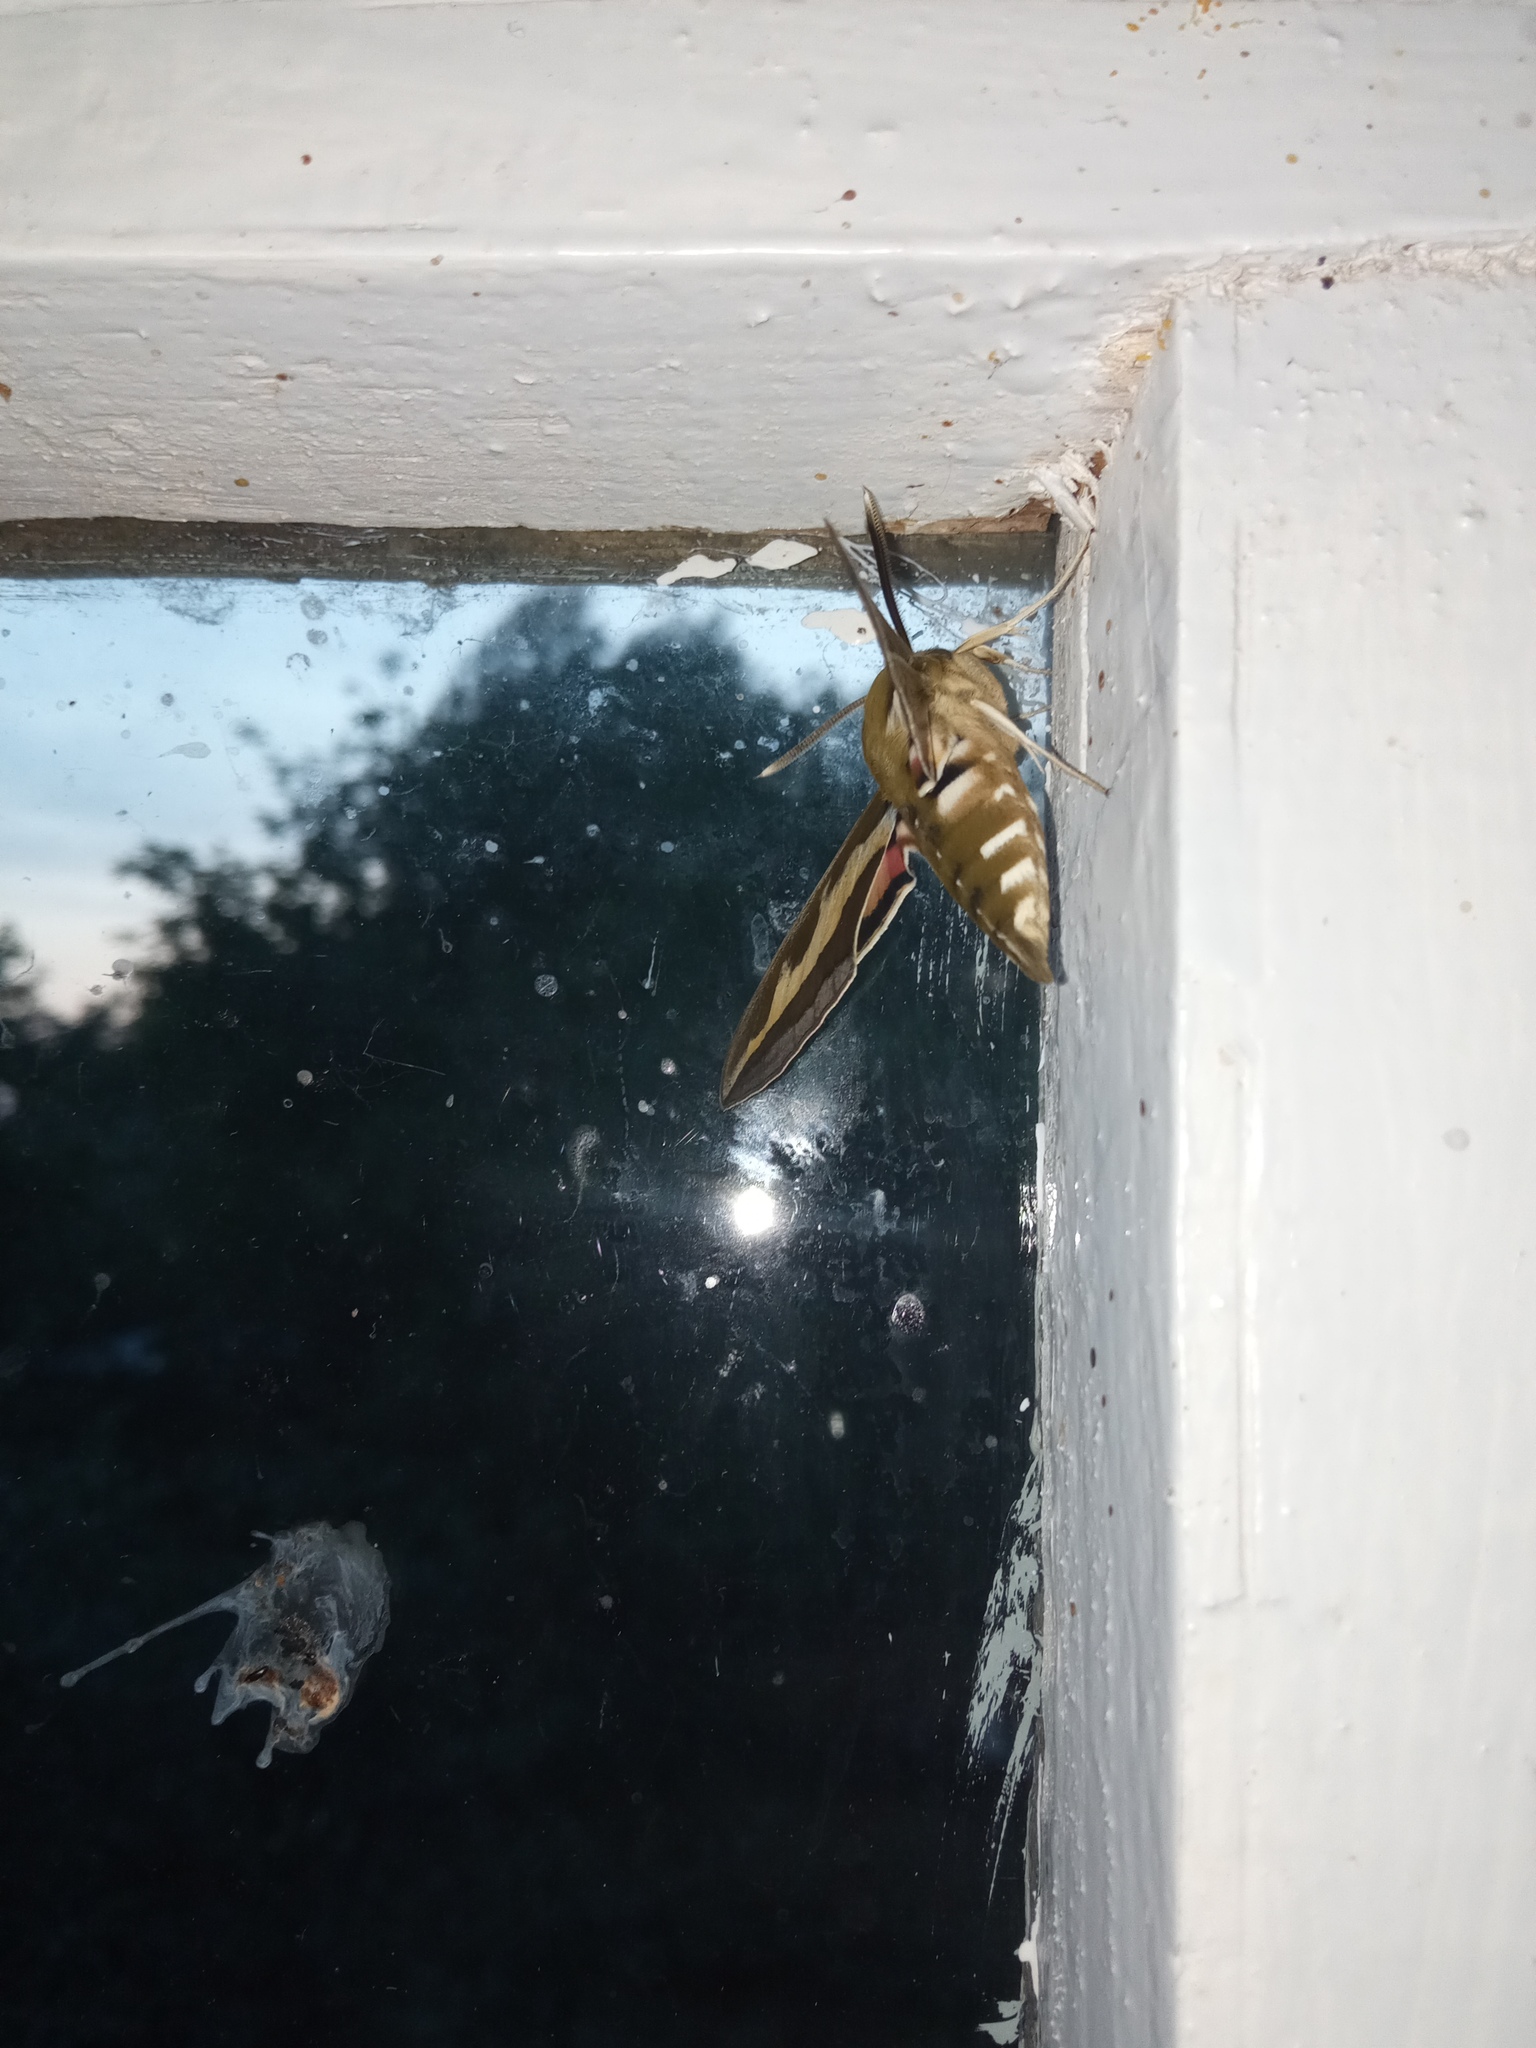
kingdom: Animalia
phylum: Arthropoda
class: Insecta
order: Lepidoptera
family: Sphingidae
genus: Hyles
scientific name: Hyles gallii
